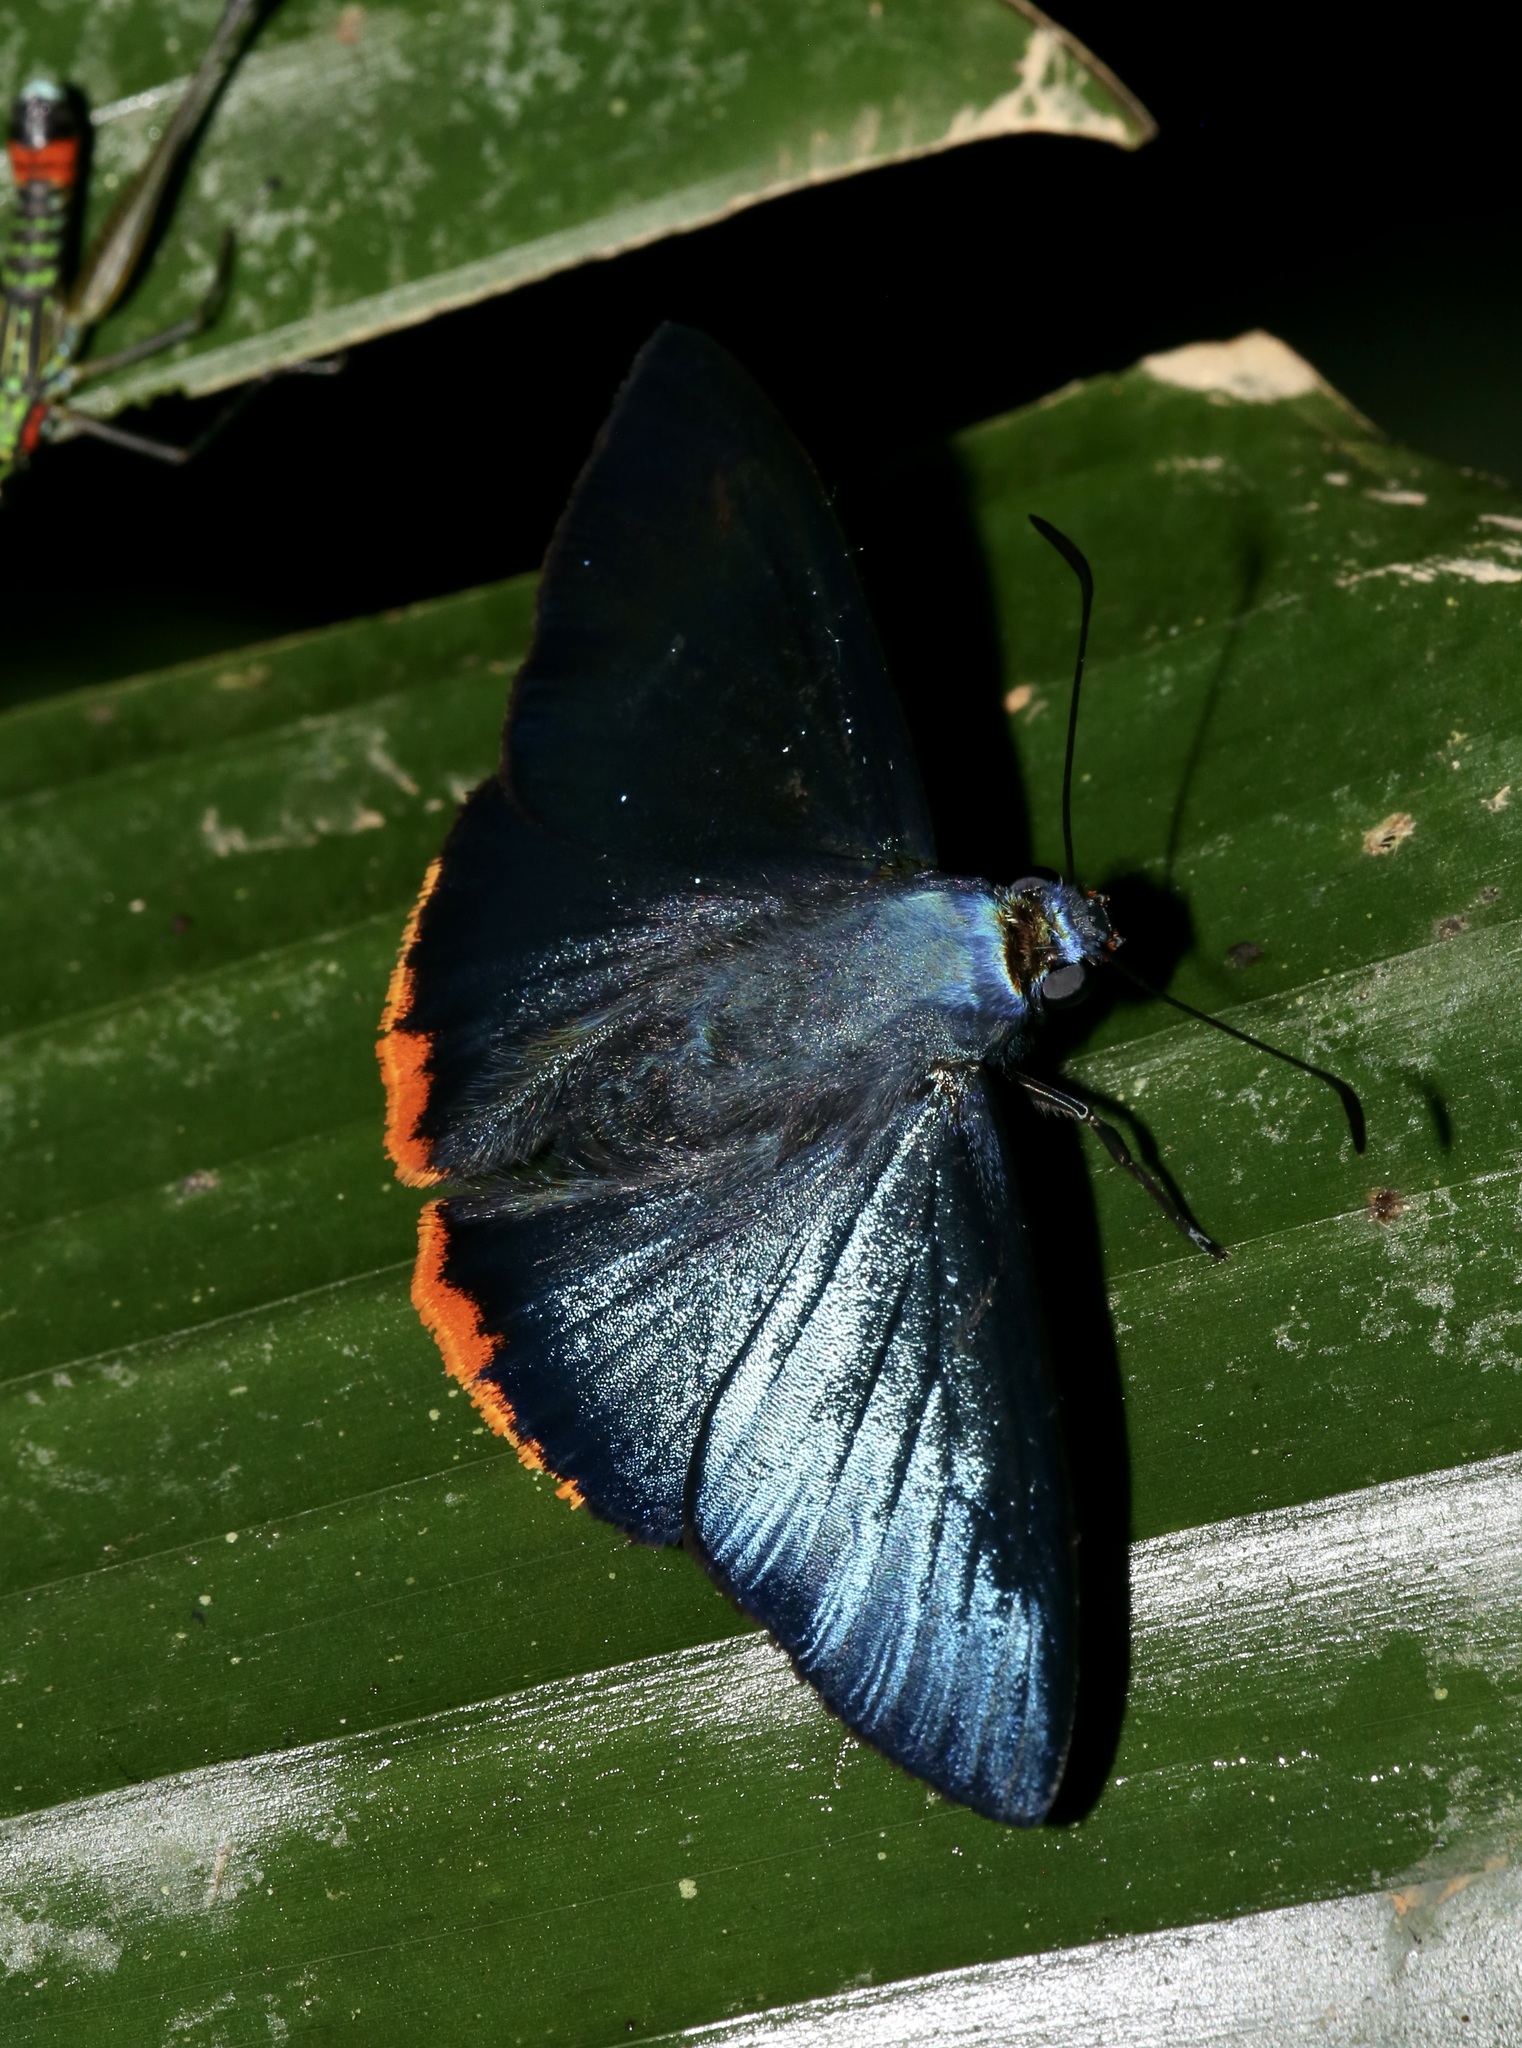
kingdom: Animalia
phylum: Arthropoda
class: Insecta
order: Lepidoptera
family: Hesperiidae
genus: Chalypyge
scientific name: Chalypyge
